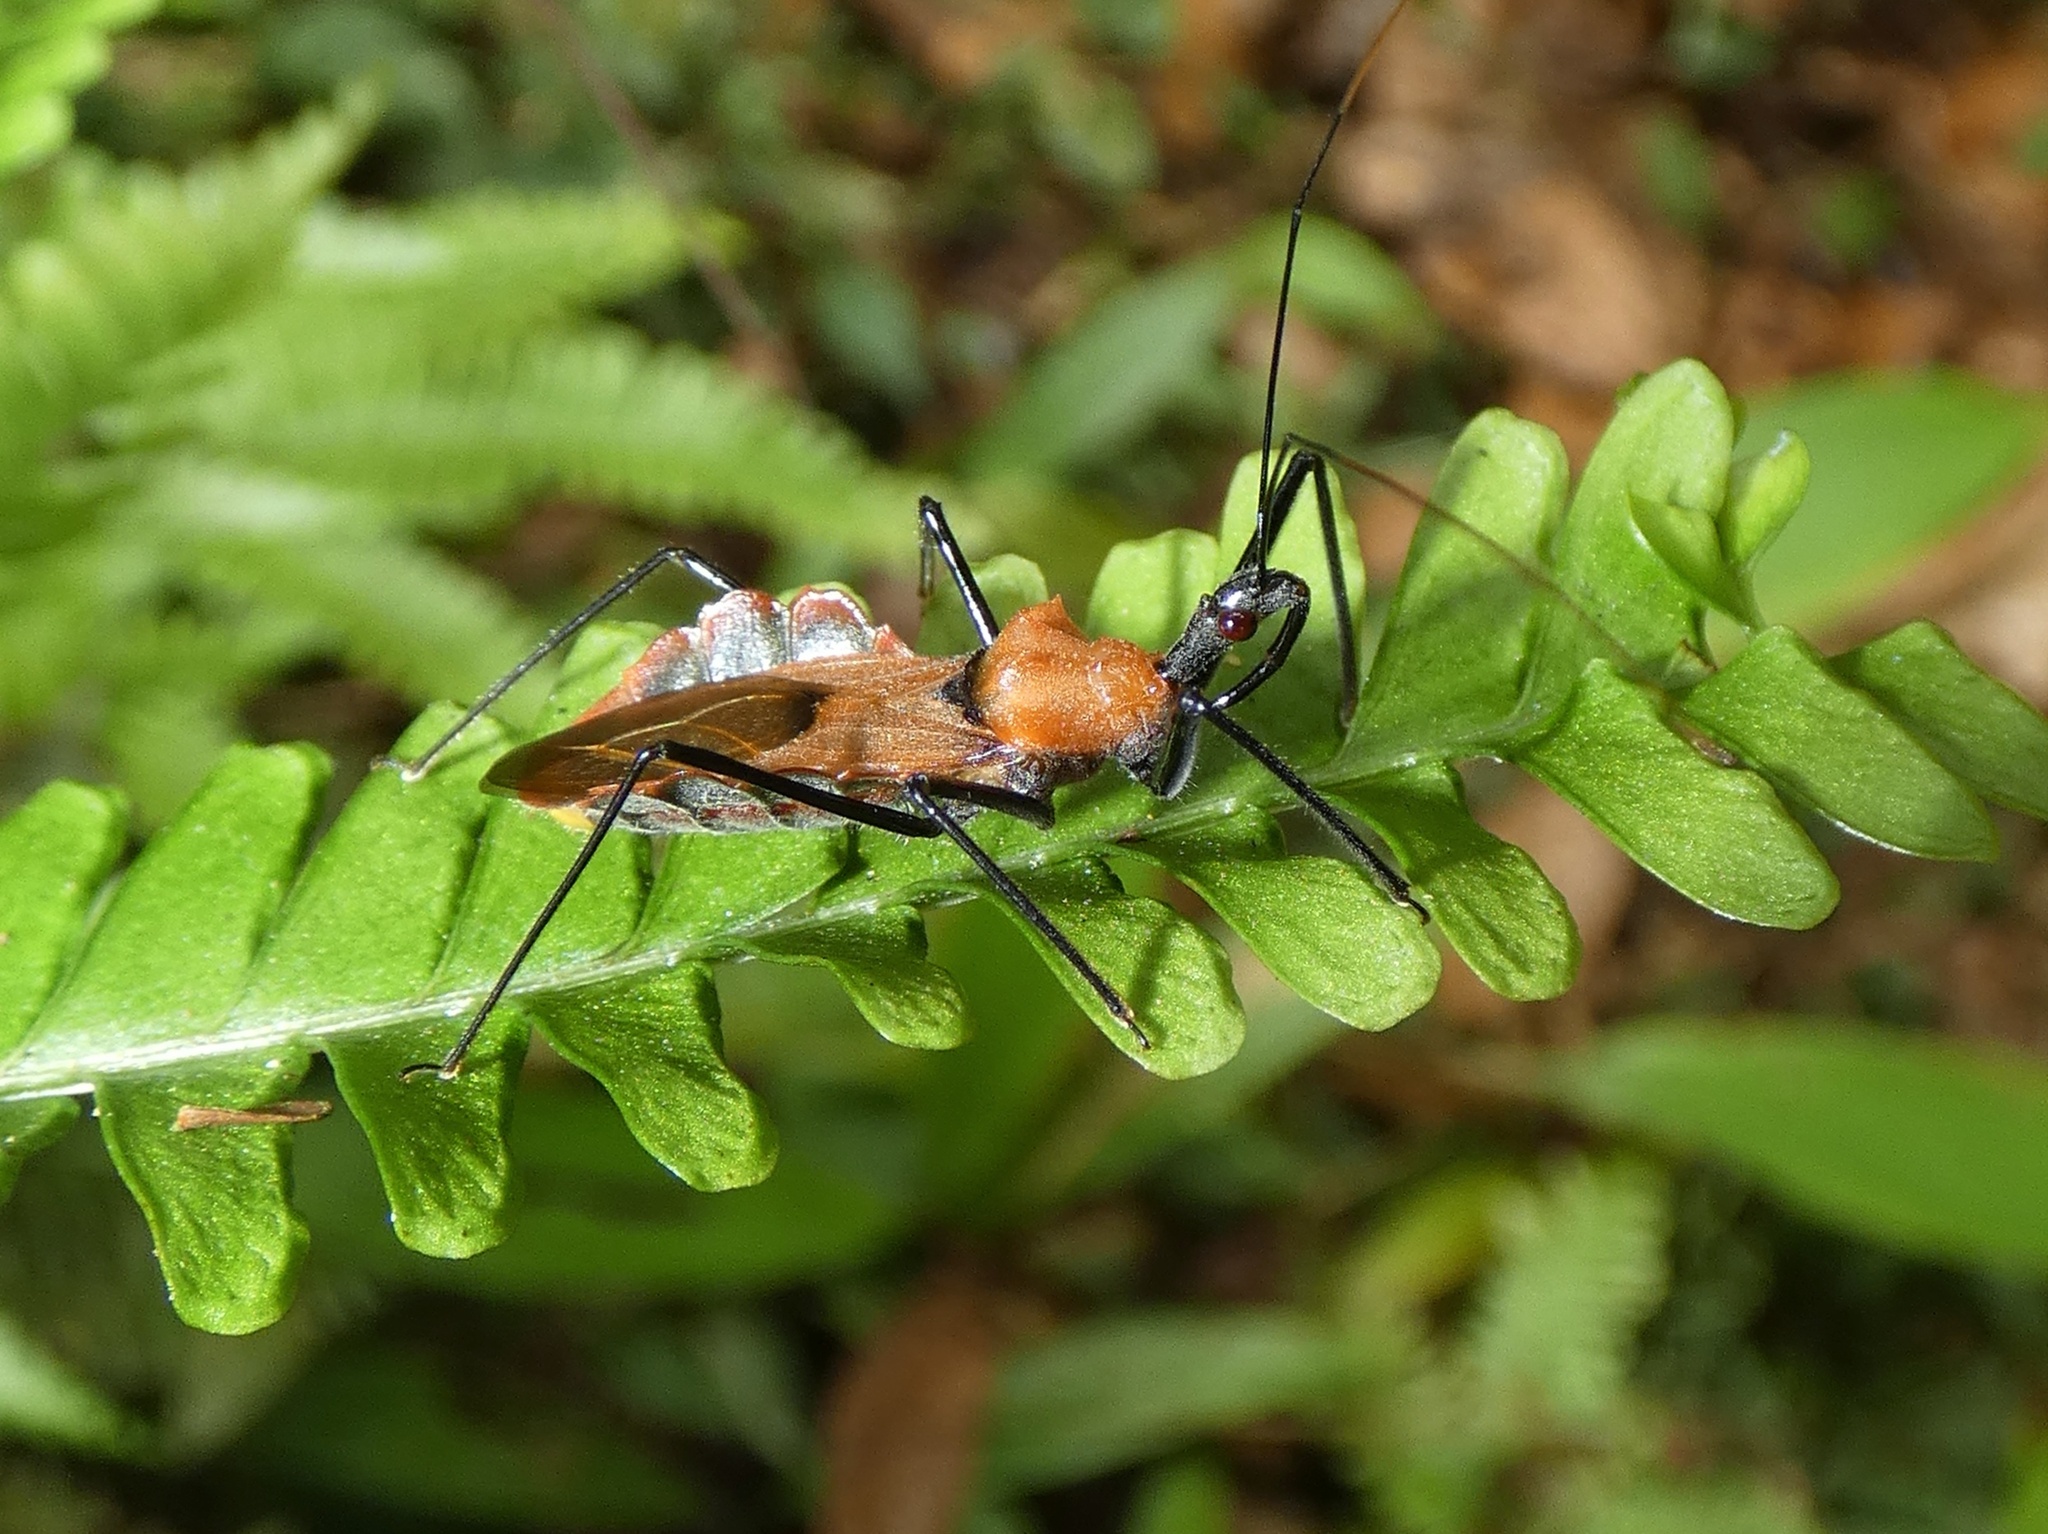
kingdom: Animalia
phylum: Arthropoda
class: Insecta
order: Hemiptera
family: Reduviidae
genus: Montina
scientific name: Montina scutellaris
